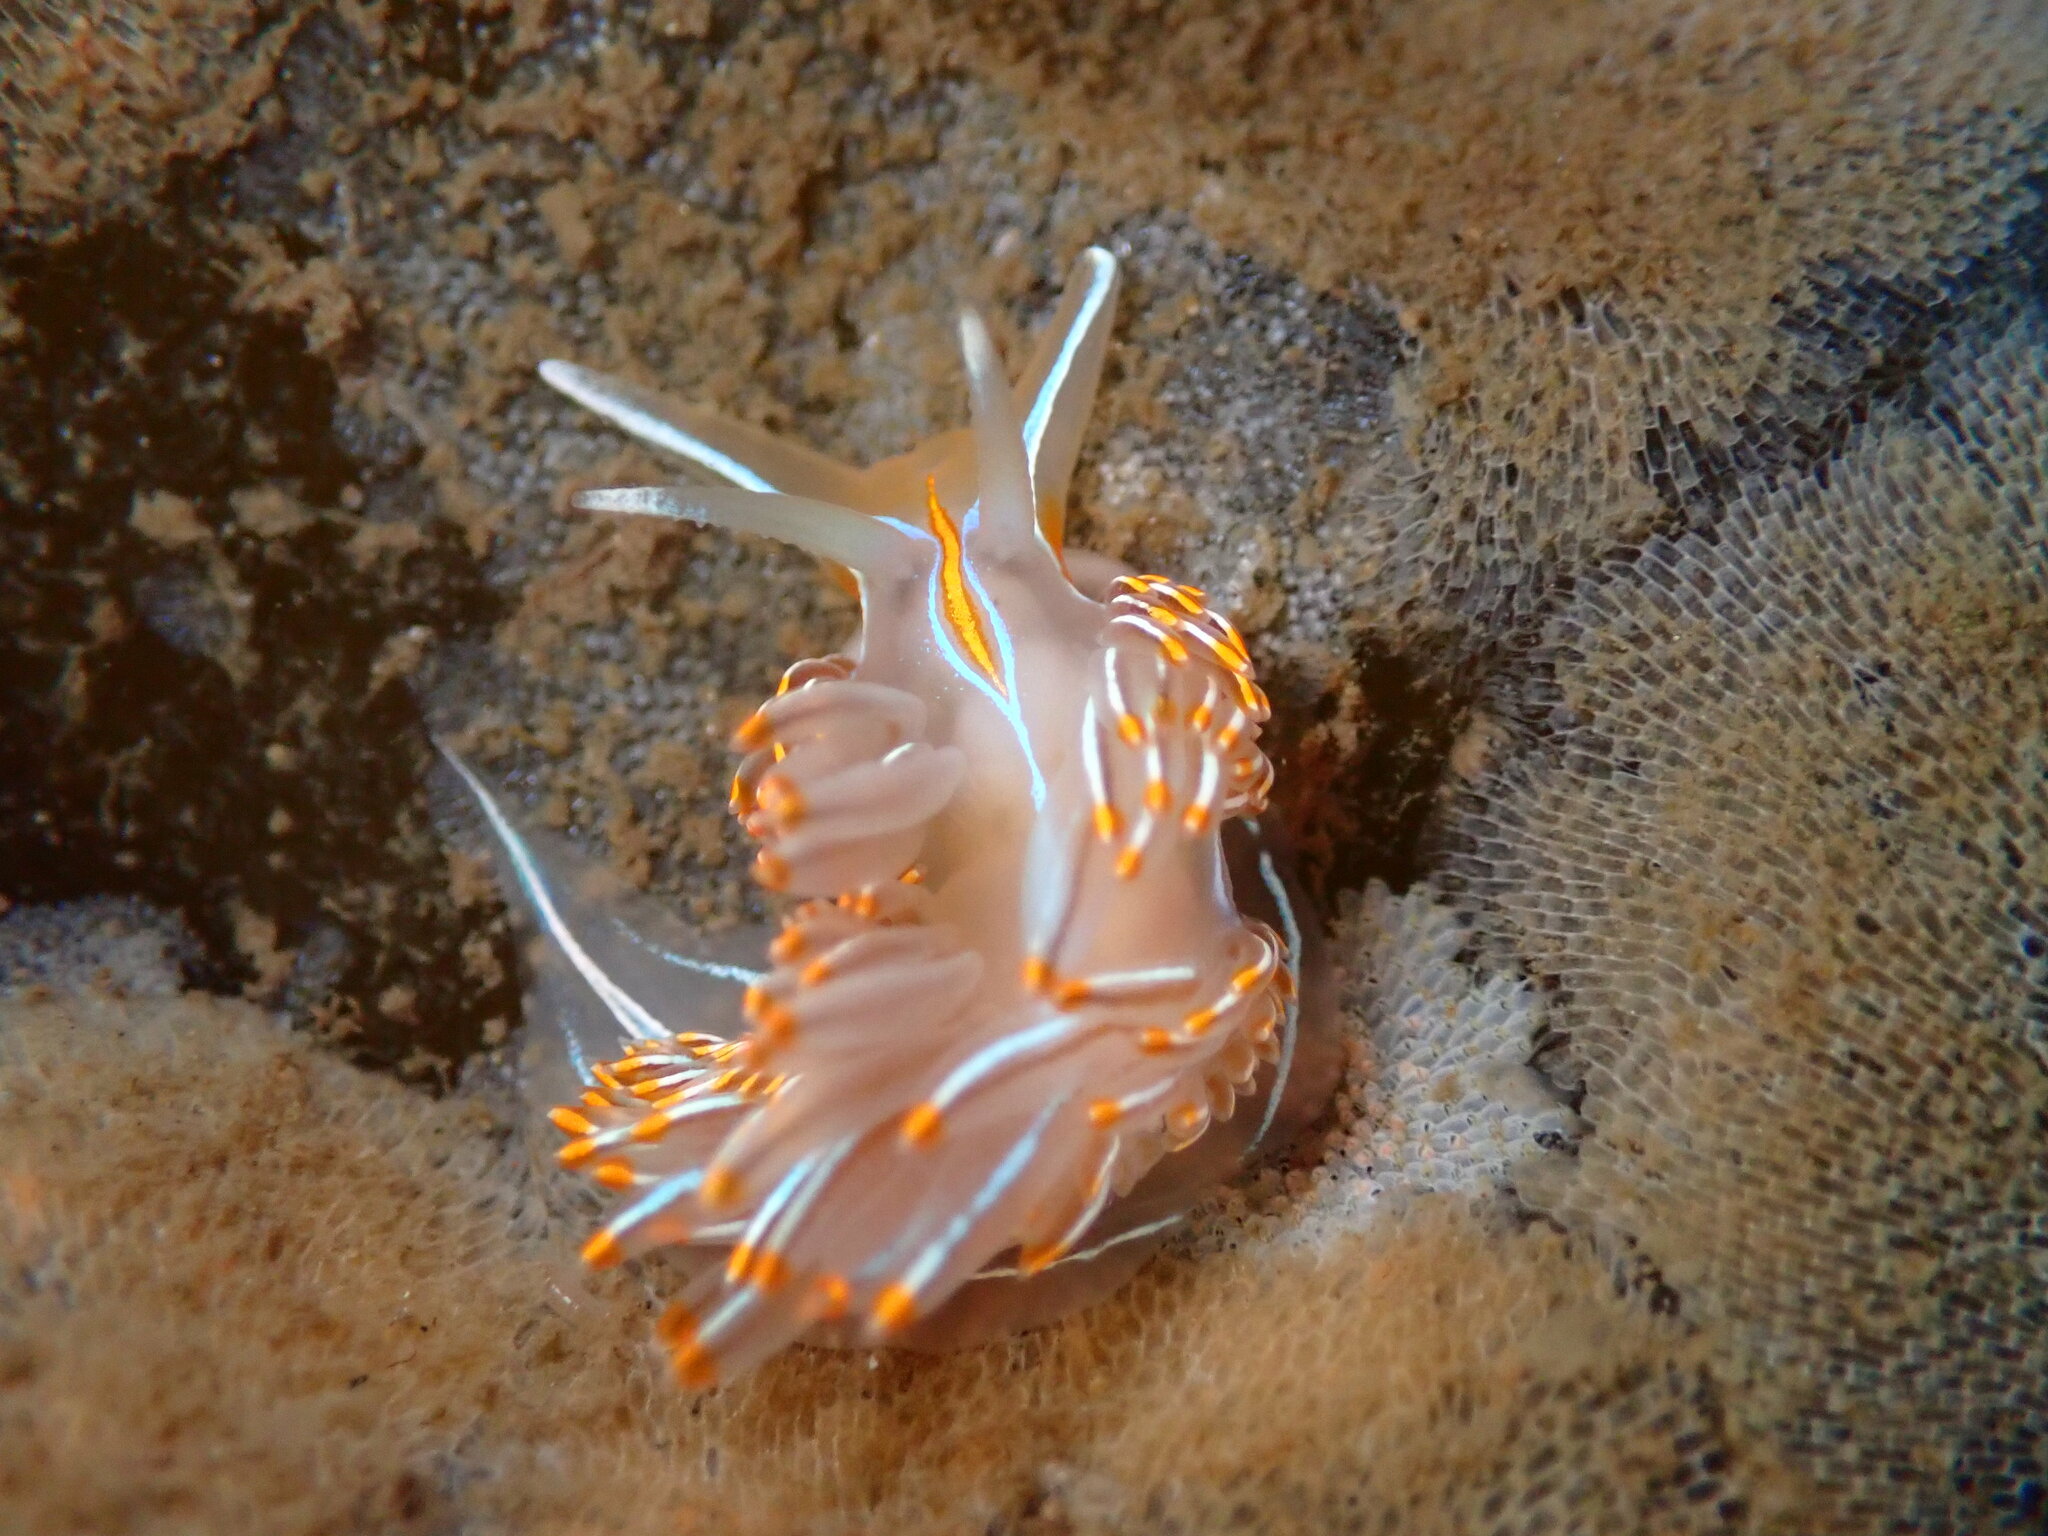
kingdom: Animalia
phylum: Mollusca
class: Gastropoda
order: Nudibranchia
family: Myrrhinidae
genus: Hermissenda
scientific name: Hermissenda crassicornis
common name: Hermissenda
